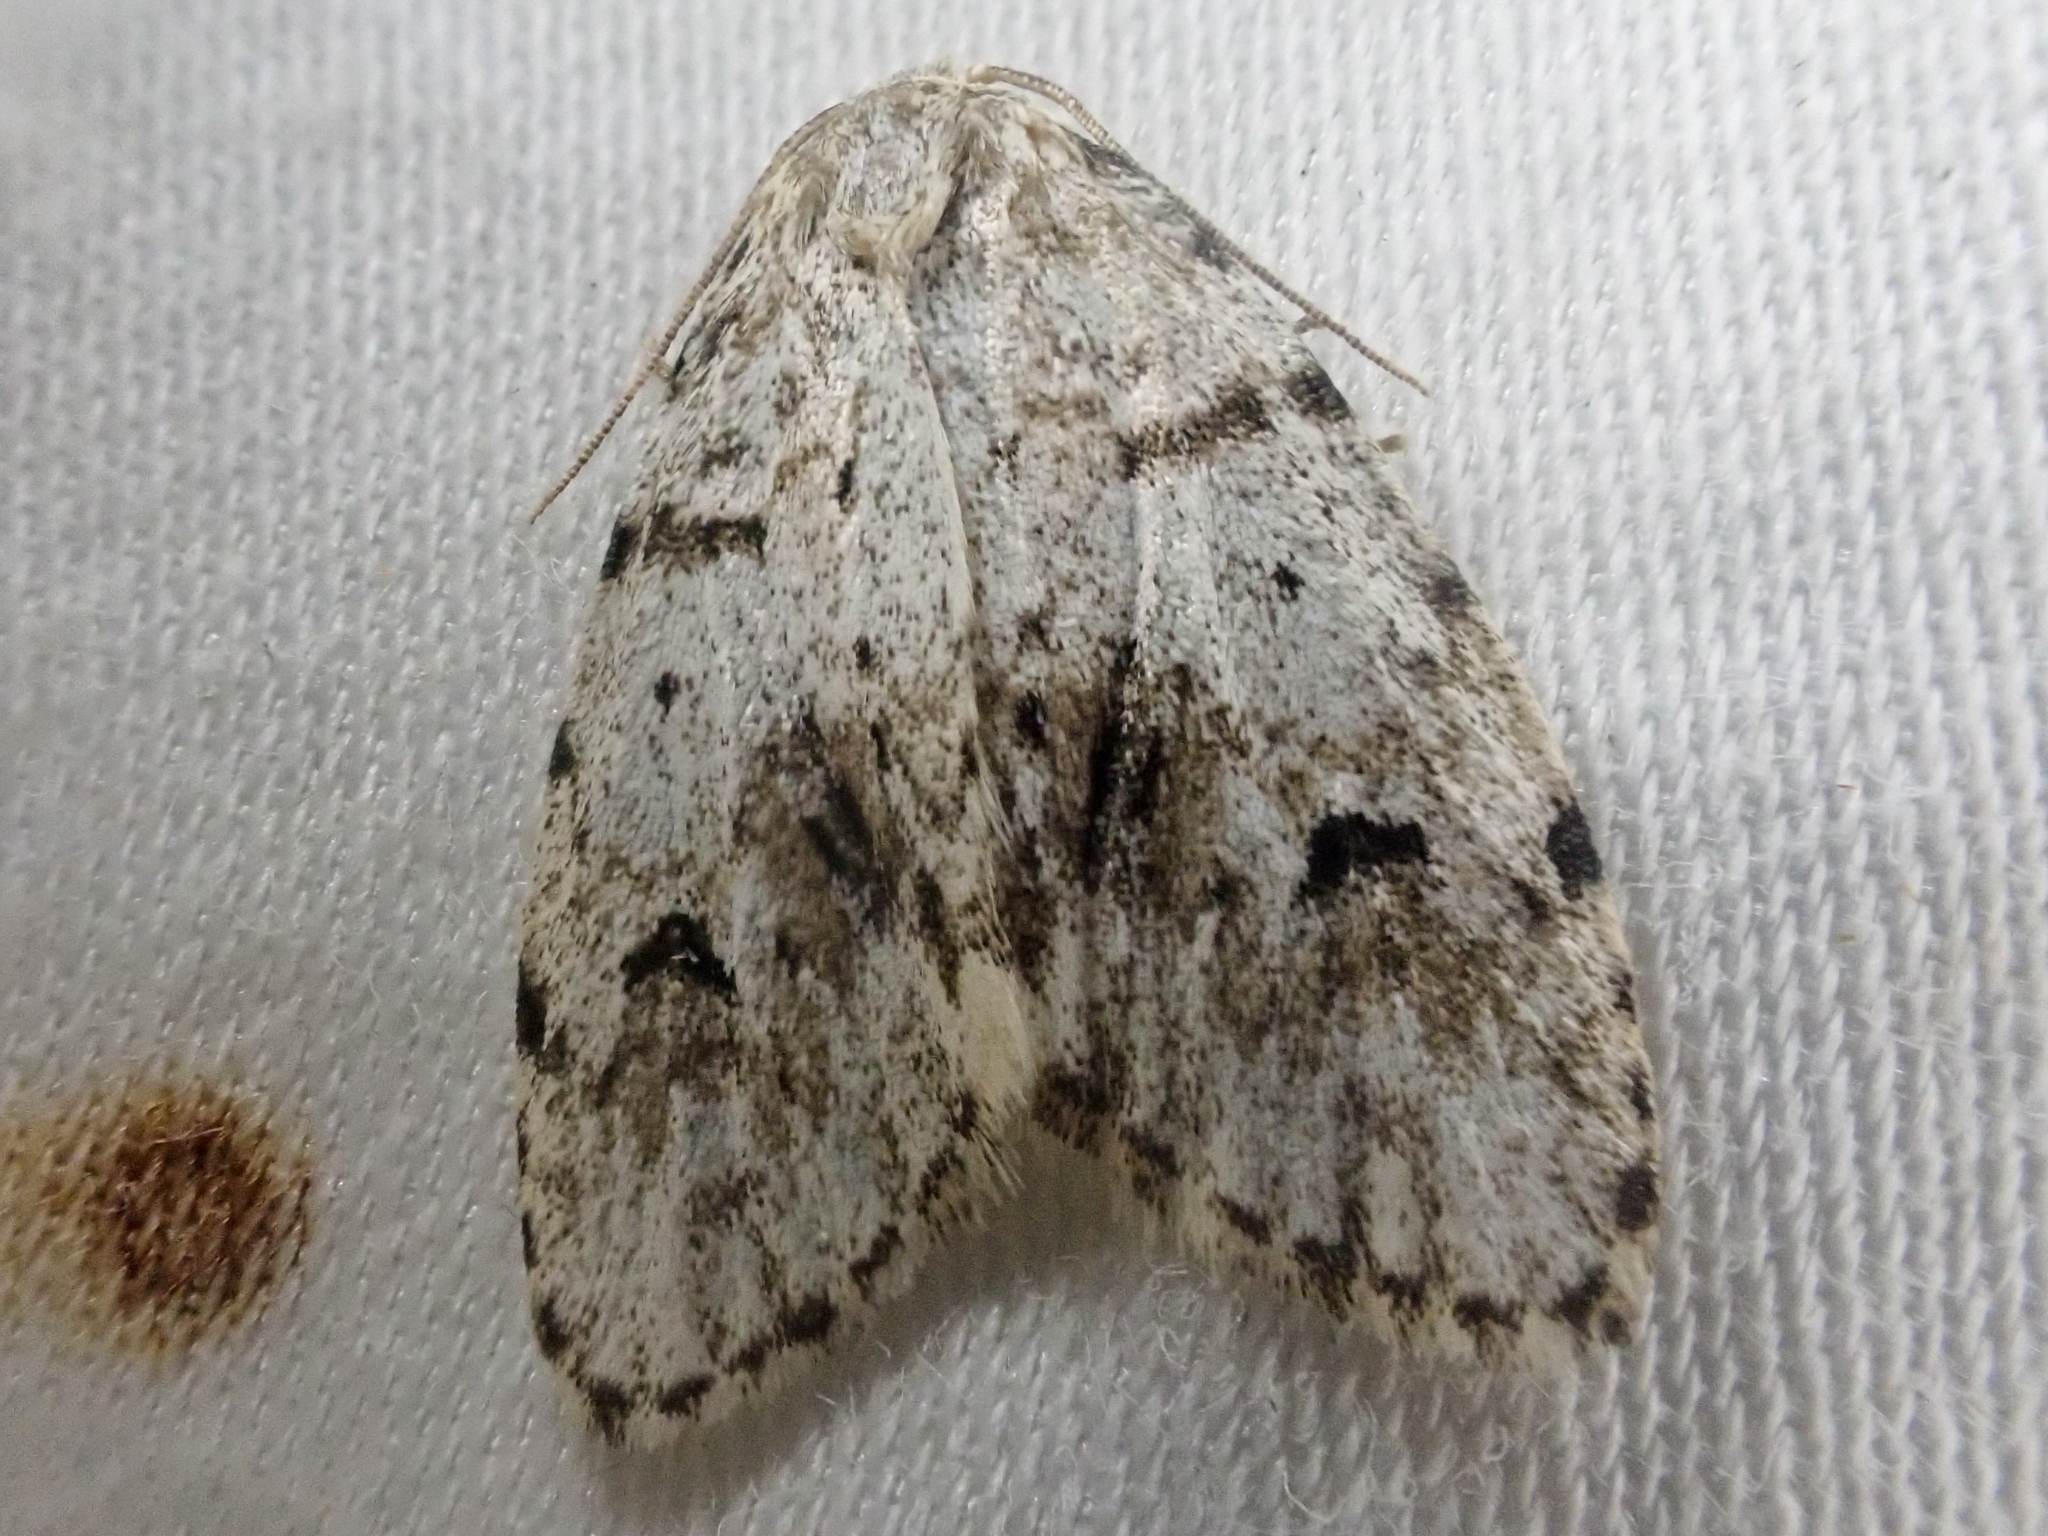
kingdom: Animalia
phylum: Arthropoda
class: Insecta
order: Lepidoptera
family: Erebidae
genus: Clemensia
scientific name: Clemensia umbrata
